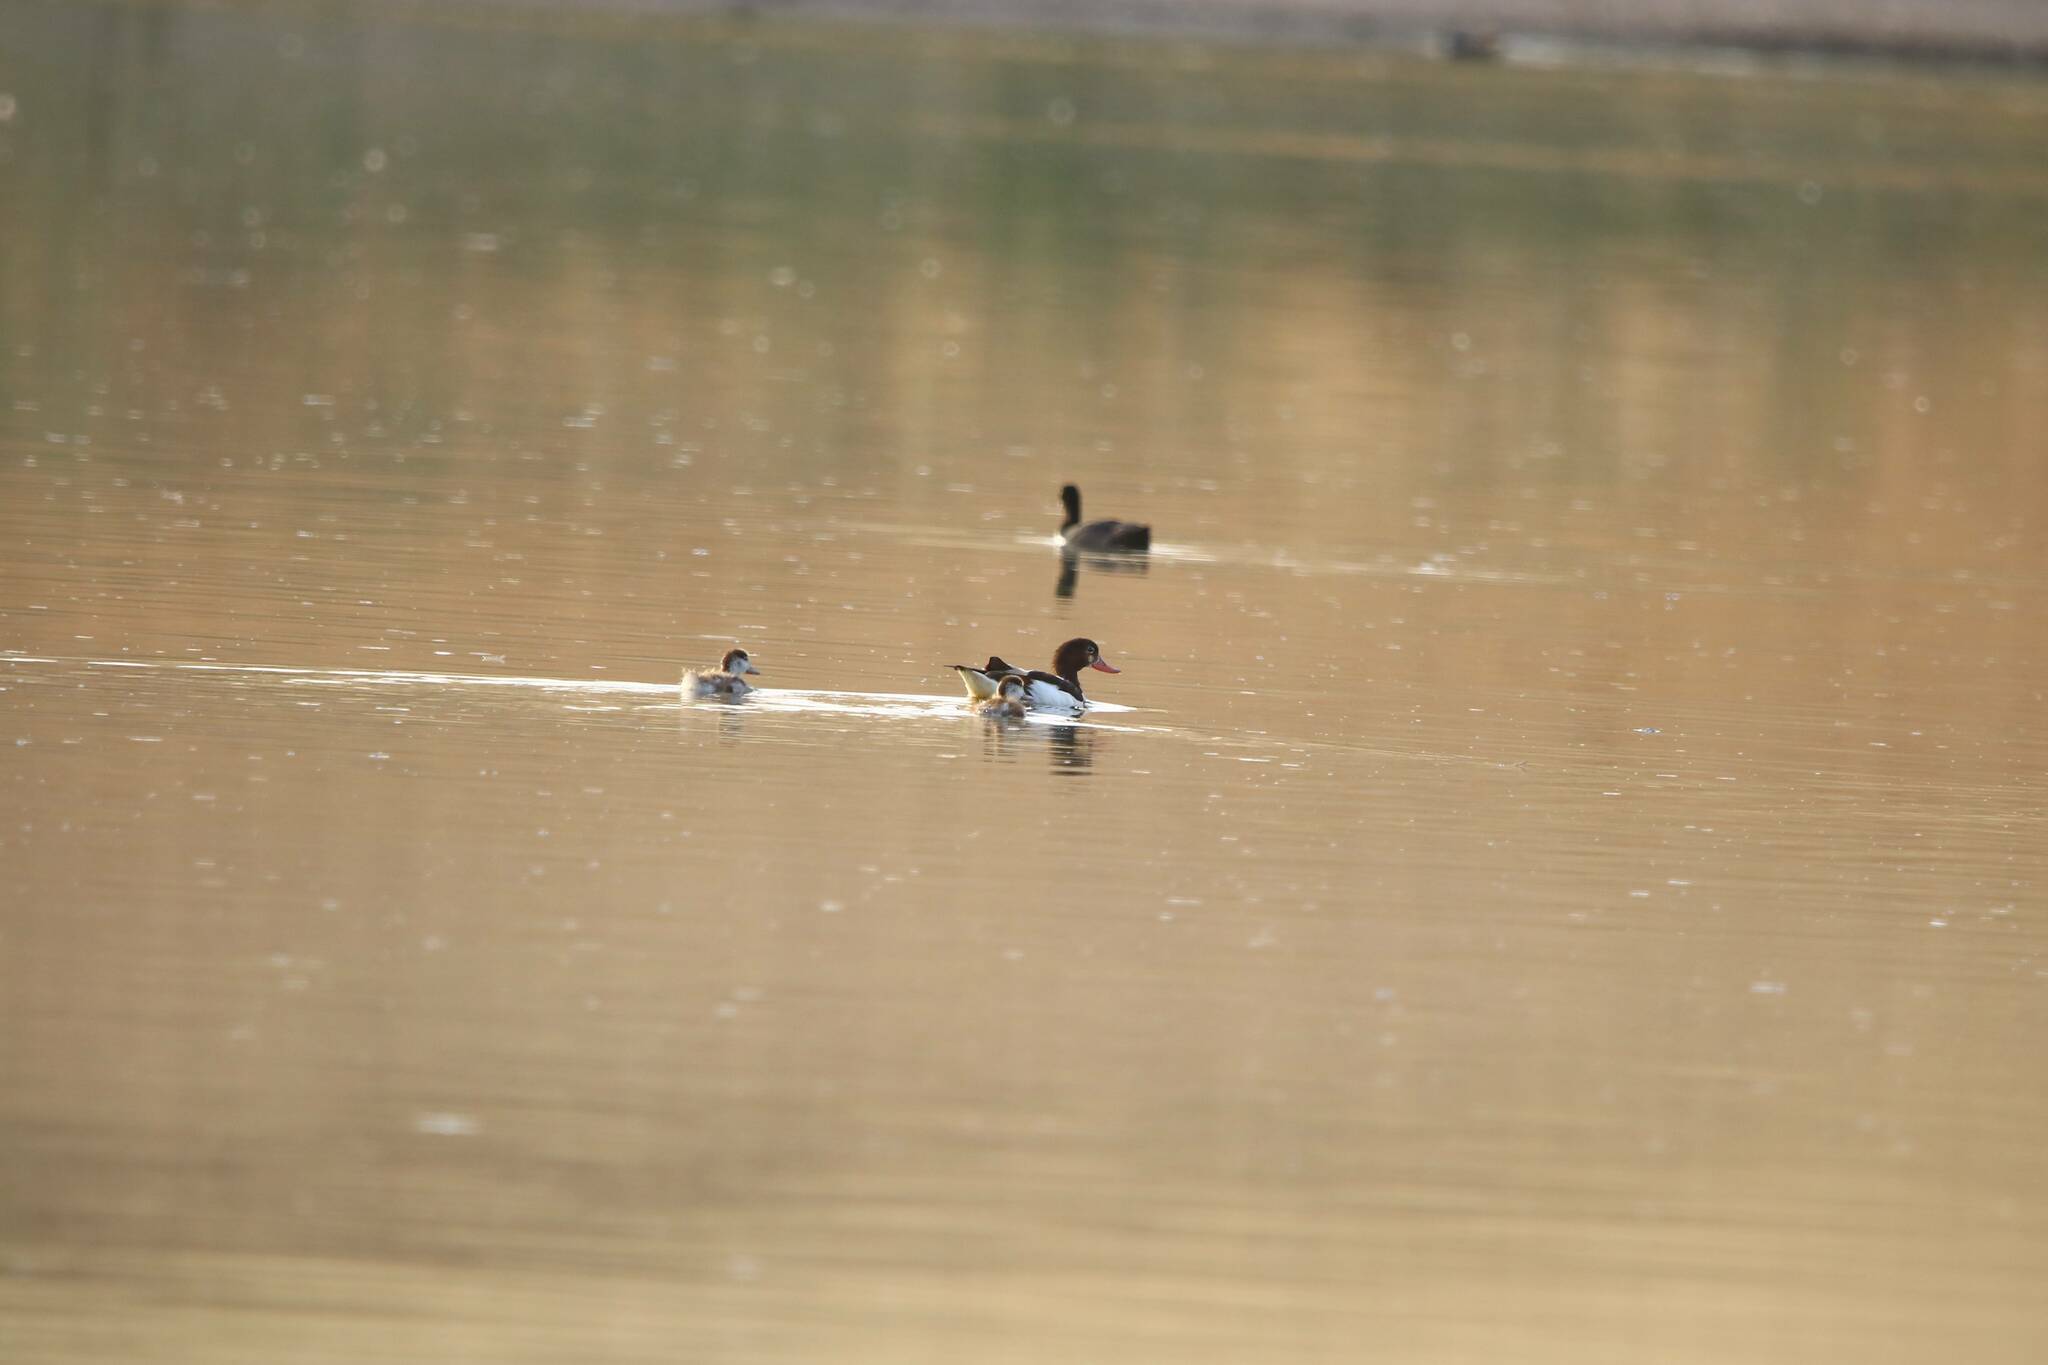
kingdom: Animalia
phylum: Chordata
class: Aves
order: Anseriformes
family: Anatidae
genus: Tadorna
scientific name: Tadorna tadorna
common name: Common shelduck
